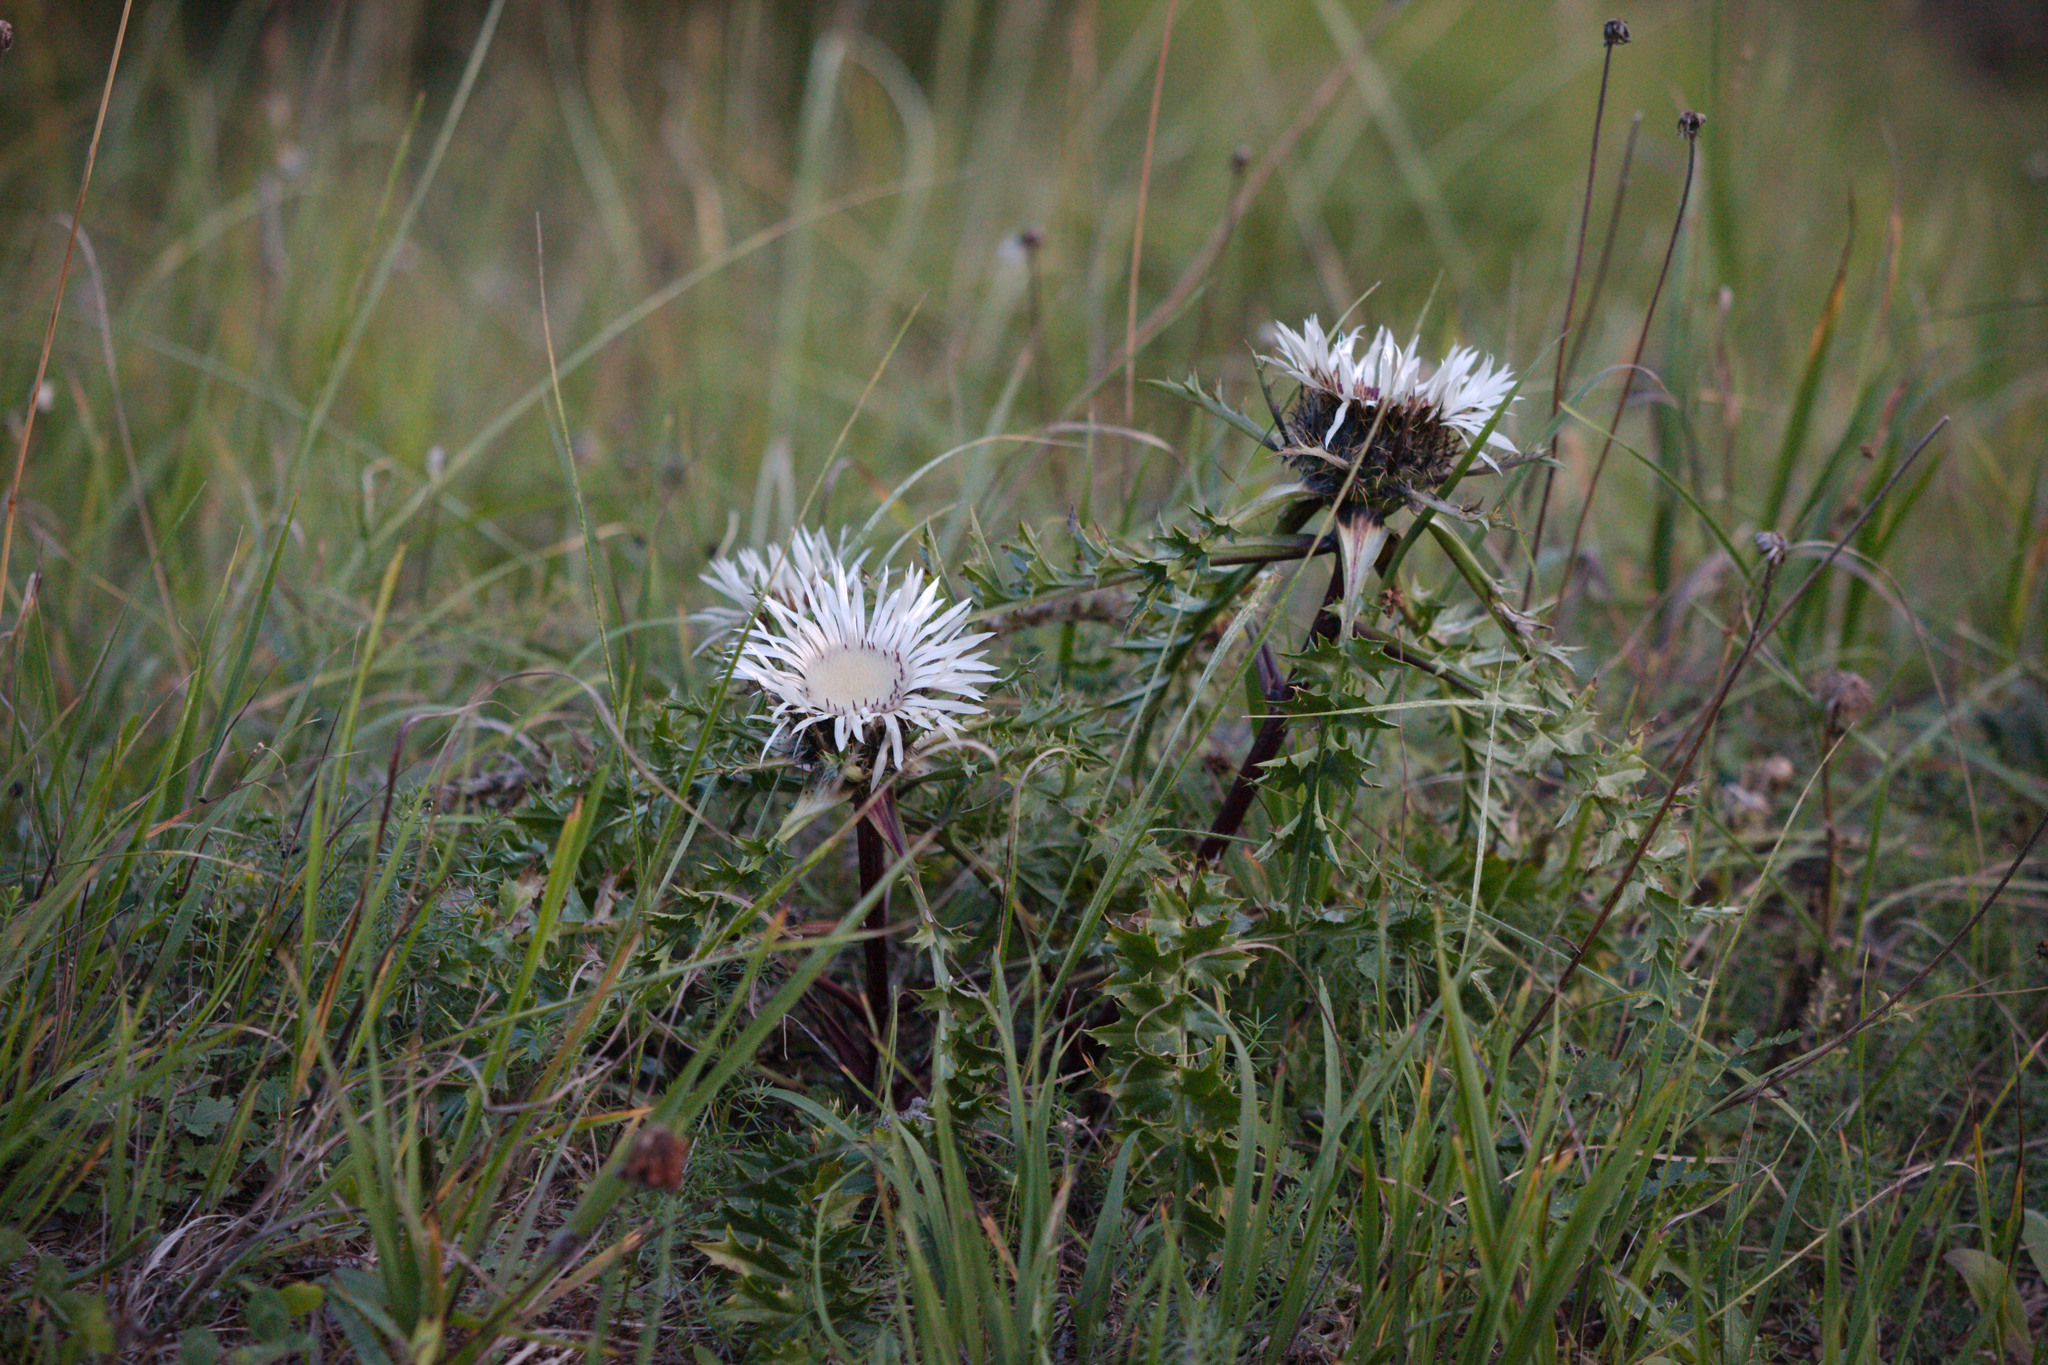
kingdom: Plantae
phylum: Tracheophyta
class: Magnoliopsida
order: Asterales
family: Asteraceae
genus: Carlina
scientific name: Carlina acaulis
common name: Stemless carline thistle
